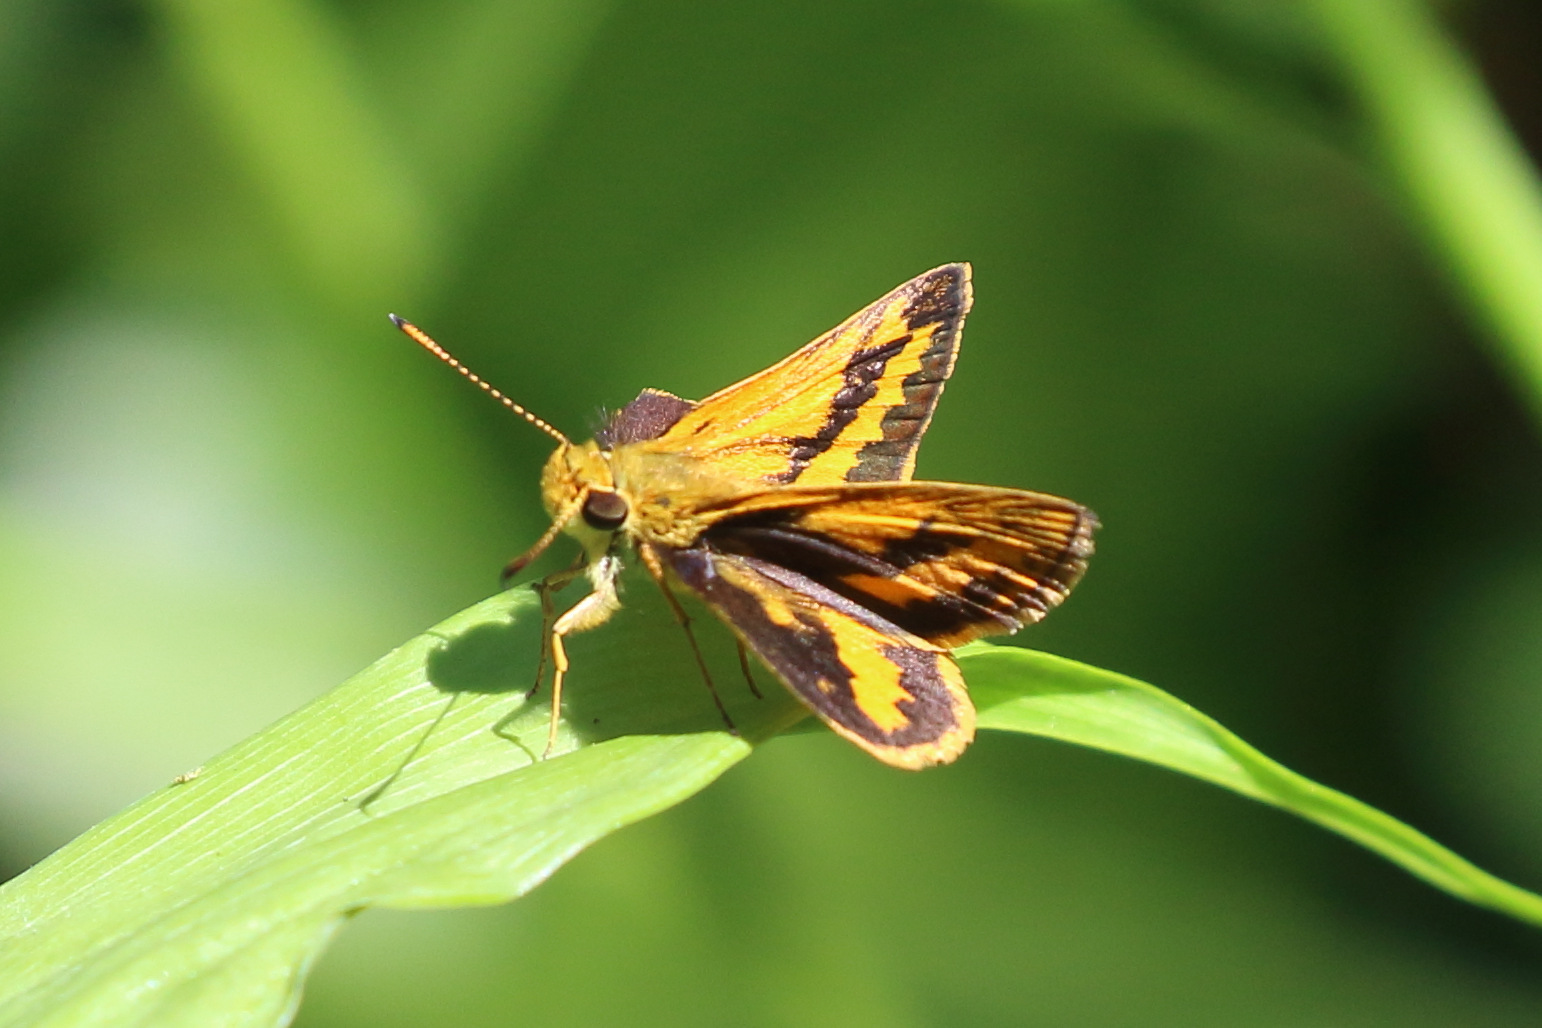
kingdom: Animalia
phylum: Arthropoda
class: Insecta
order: Lepidoptera
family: Hesperiidae
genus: Suniana
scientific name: Suniana sunias
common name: Wide-brand grass-dart
